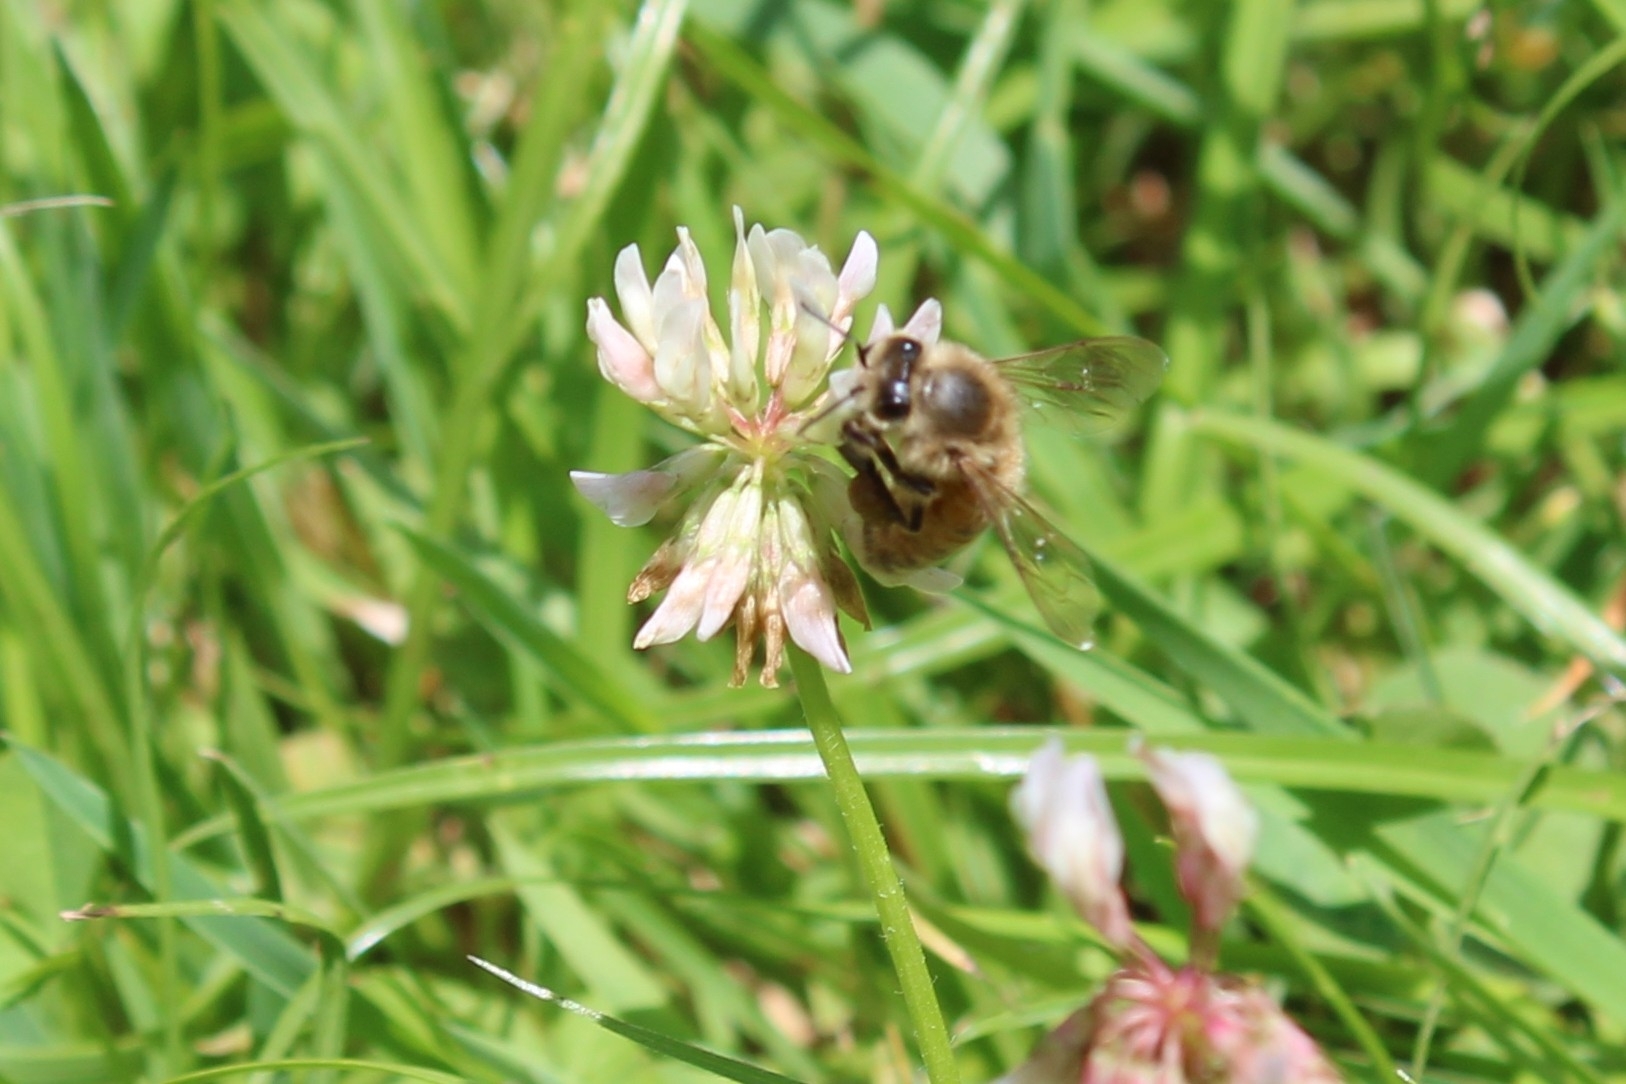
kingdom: Animalia
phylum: Arthropoda
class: Insecta
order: Hymenoptera
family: Apidae
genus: Apis
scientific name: Apis mellifera
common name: Honey bee
